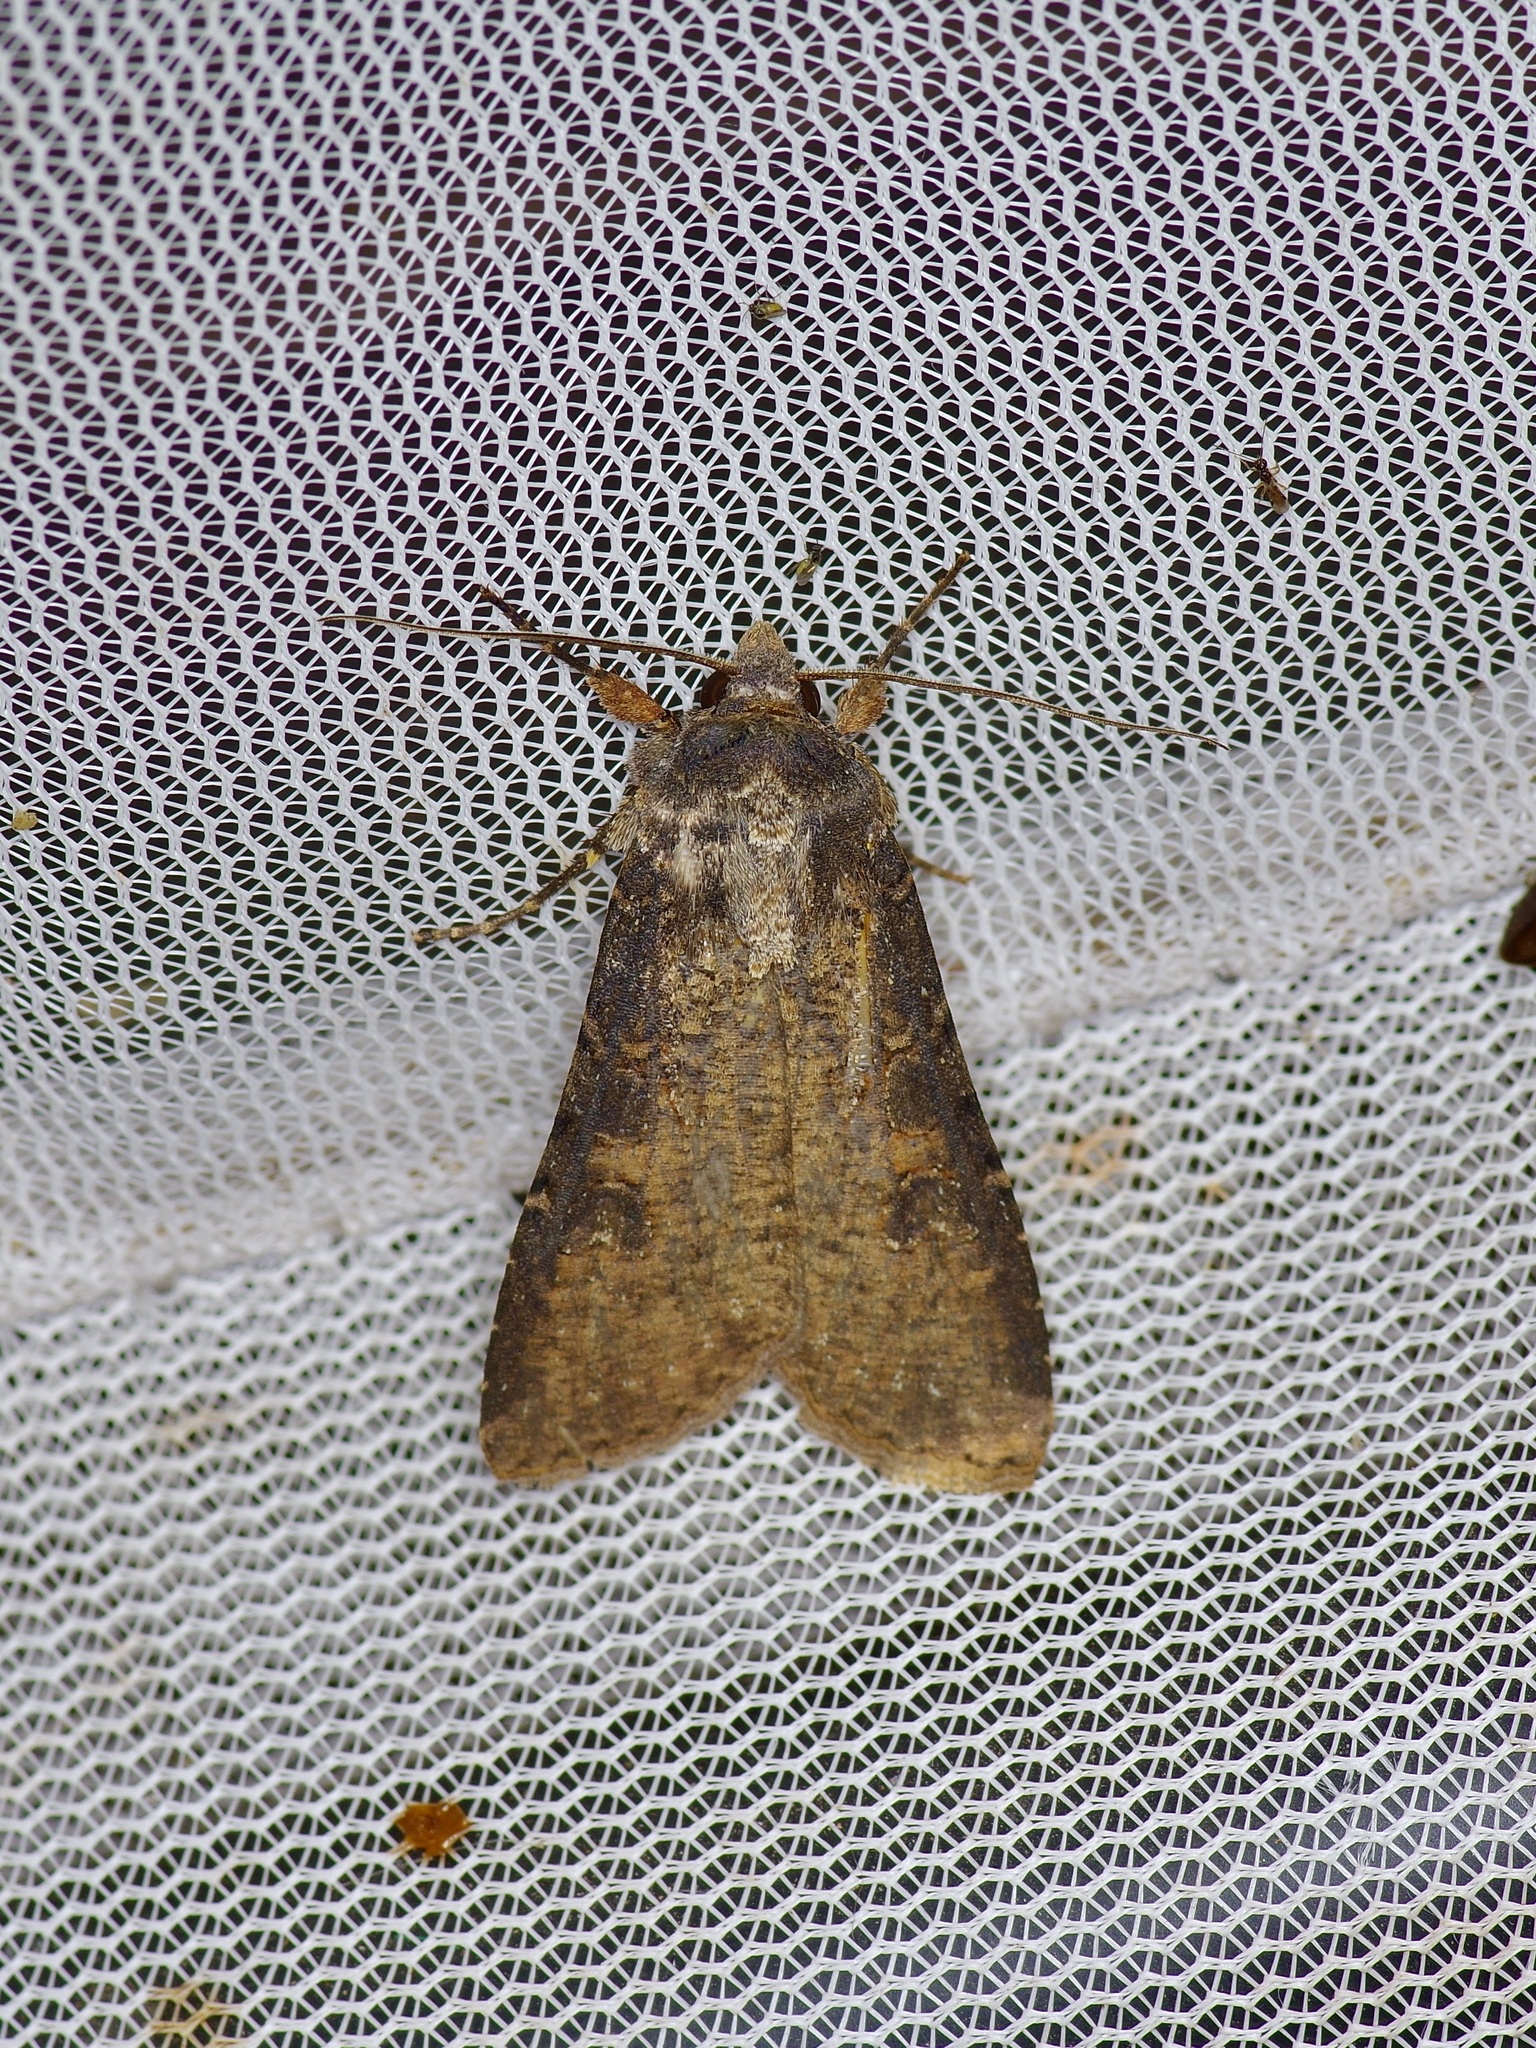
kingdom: Animalia
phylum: Arthropoda
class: Insecta
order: Lepidoptera
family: Noctuidae
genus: Peridroma
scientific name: Peridroma saucia
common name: Pearly underwing
